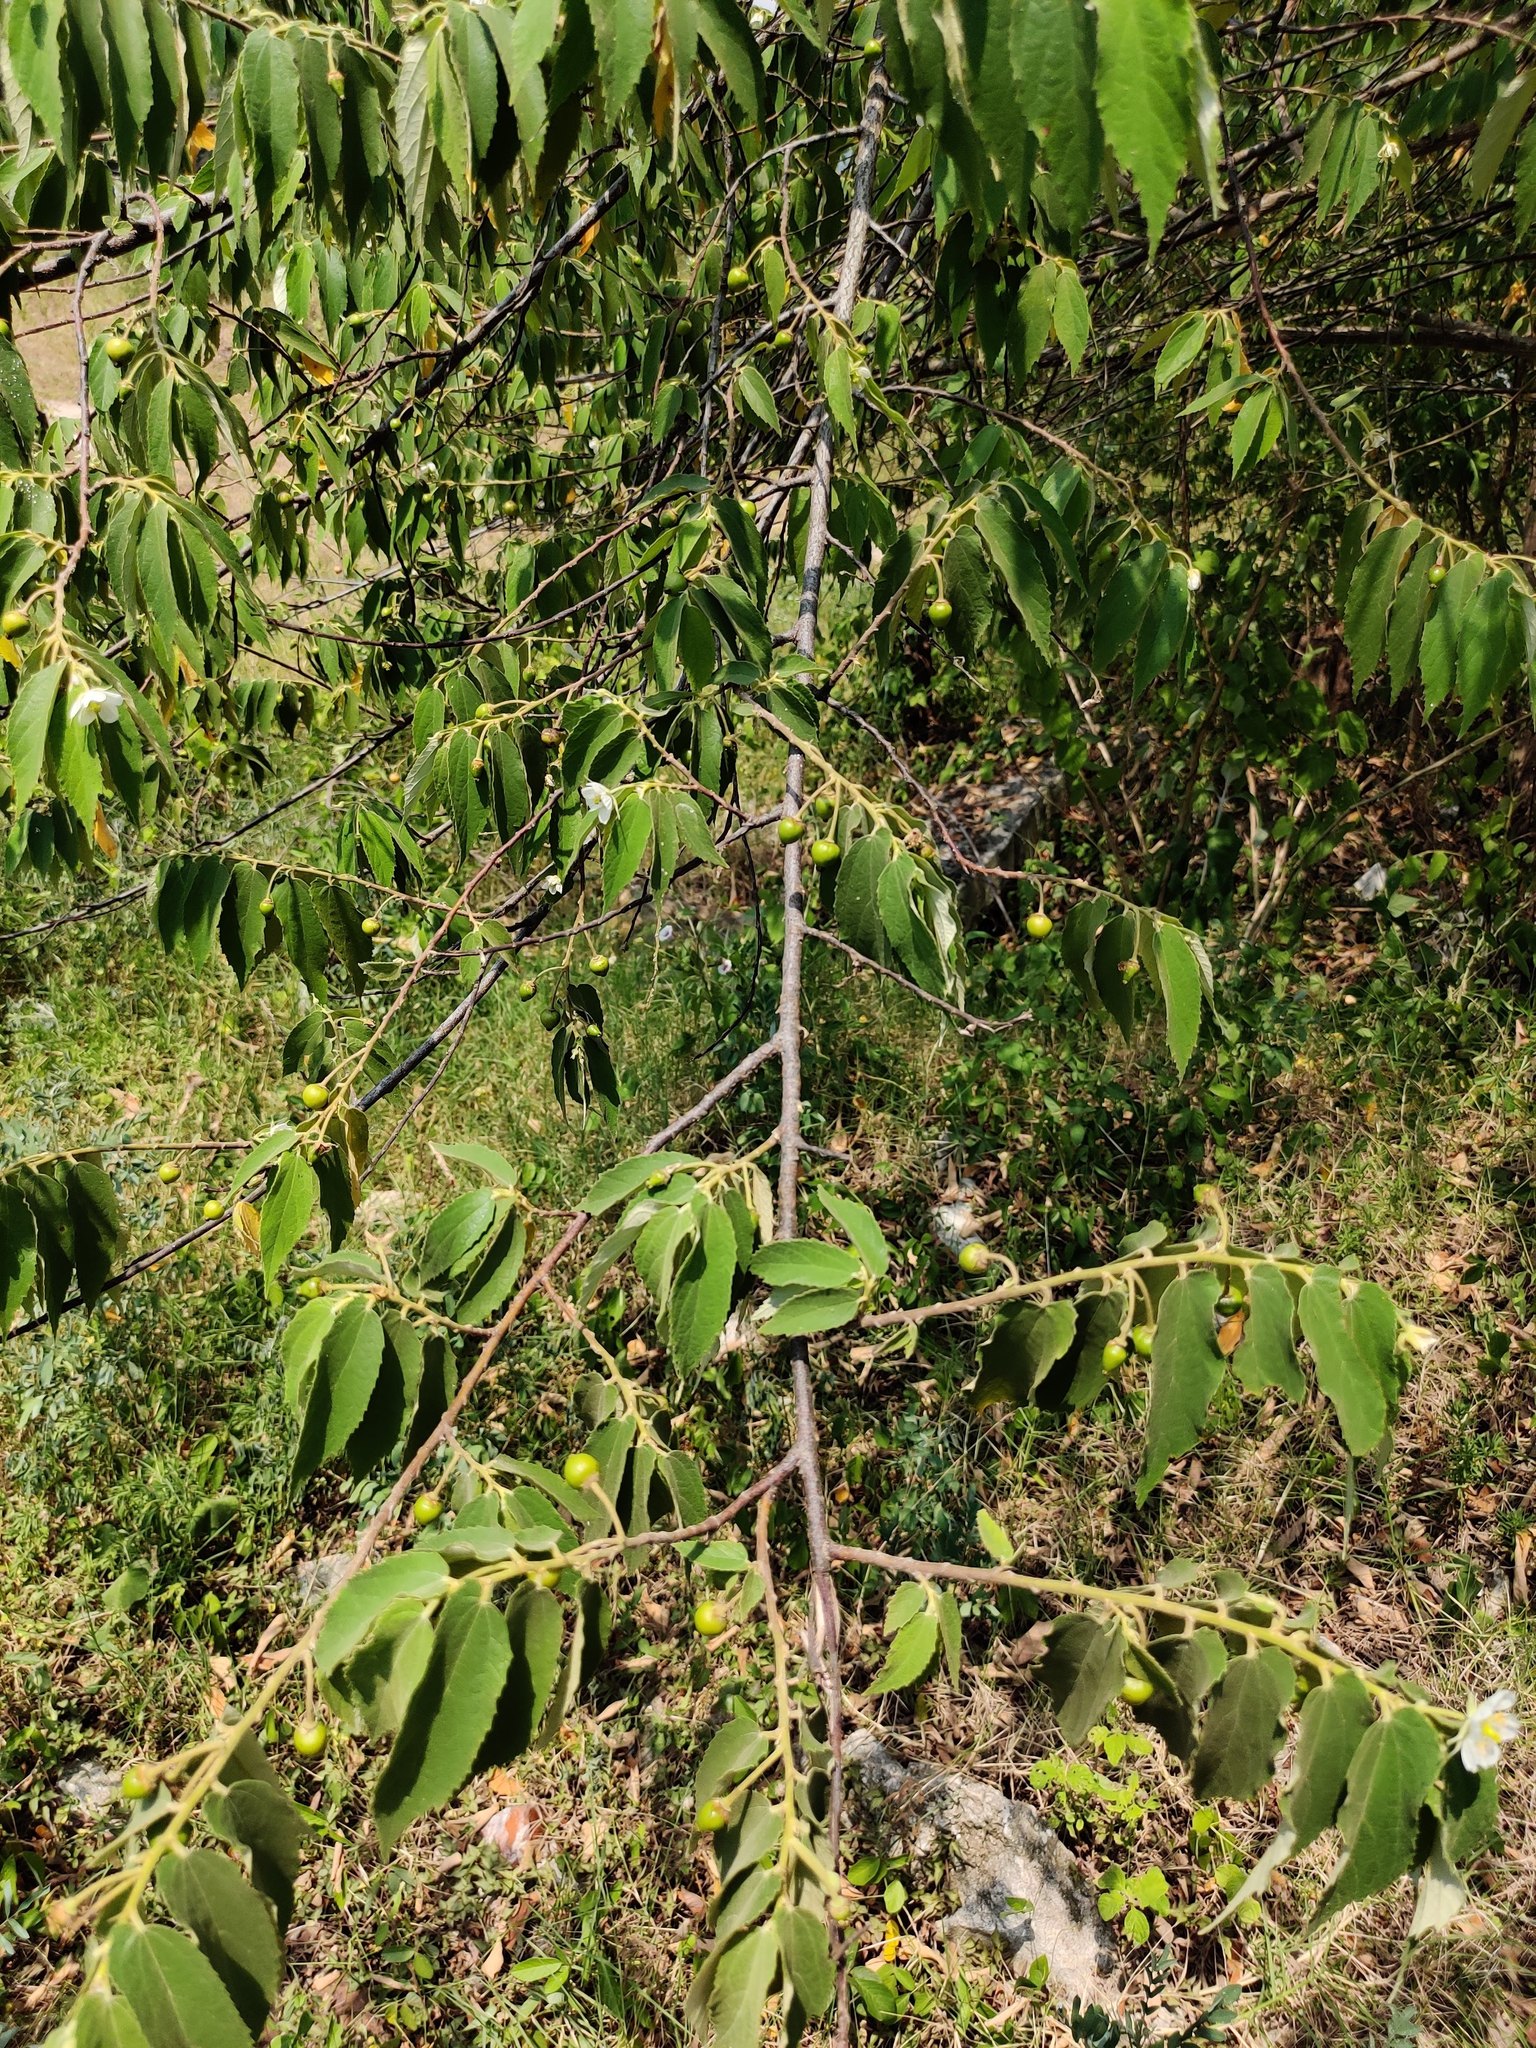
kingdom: Plantae
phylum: Tracheophyta
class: Magnoliopsida
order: Malvales
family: Muntingiaceae
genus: Muntingia
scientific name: Muntingia calabura
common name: Strawberrytree
